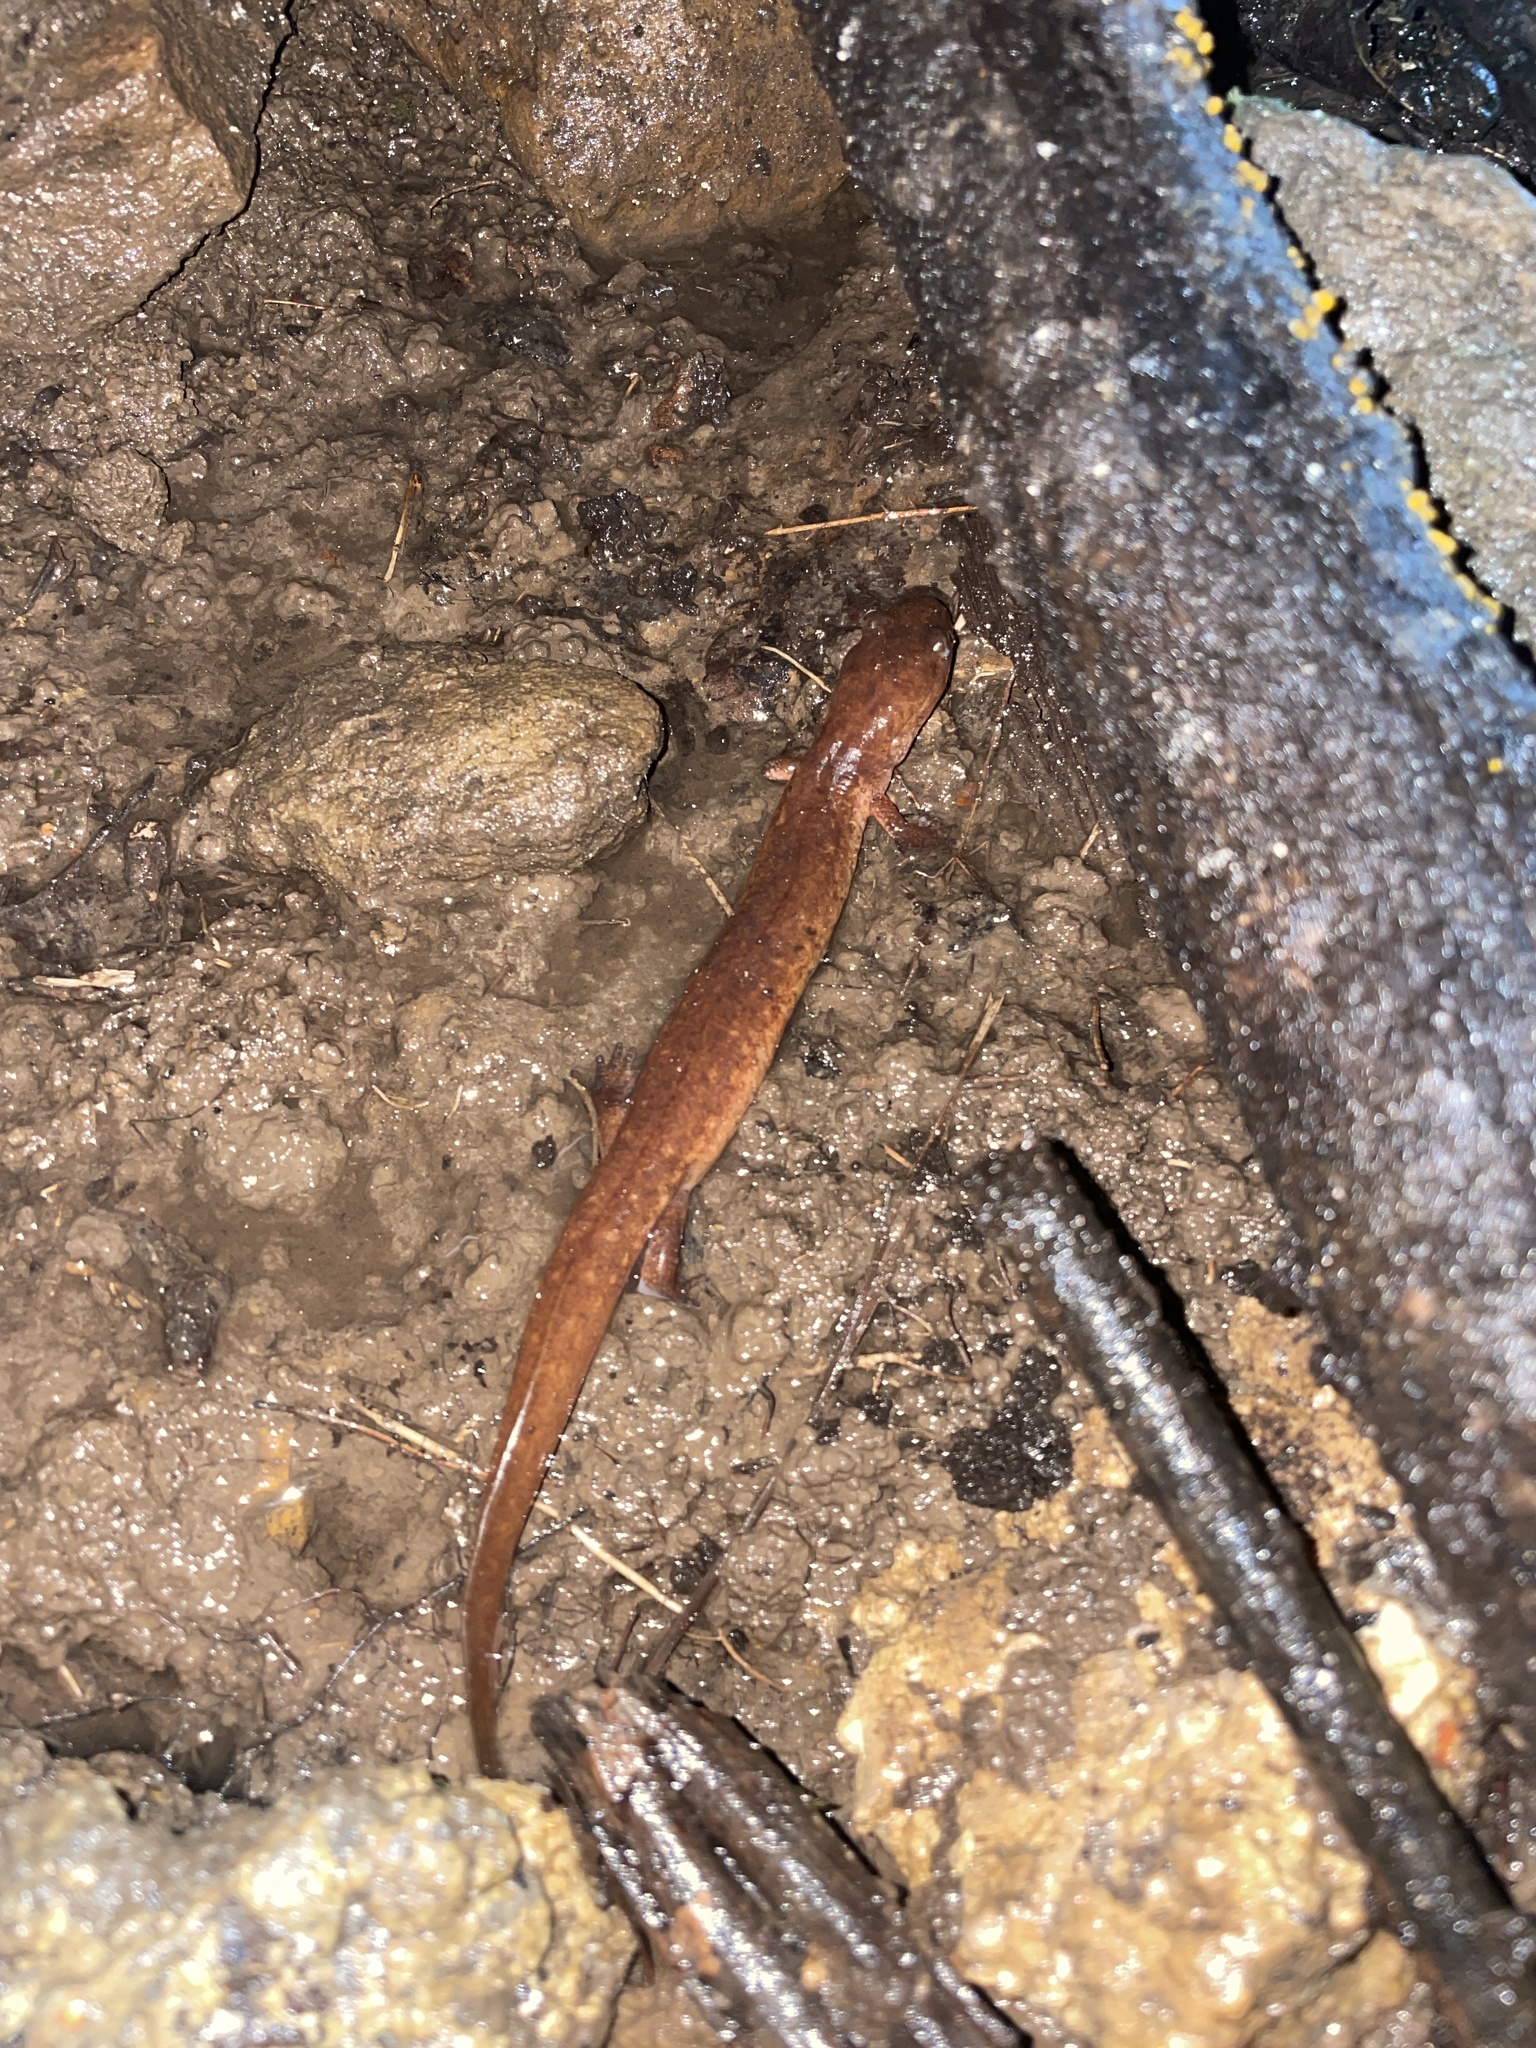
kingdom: Animalia
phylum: Chordata
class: Amphibia
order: Caudata
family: Plethodontidae
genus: Gyrinophilus
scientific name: Gyrinophilus porphyriticus
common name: Spring salamander
